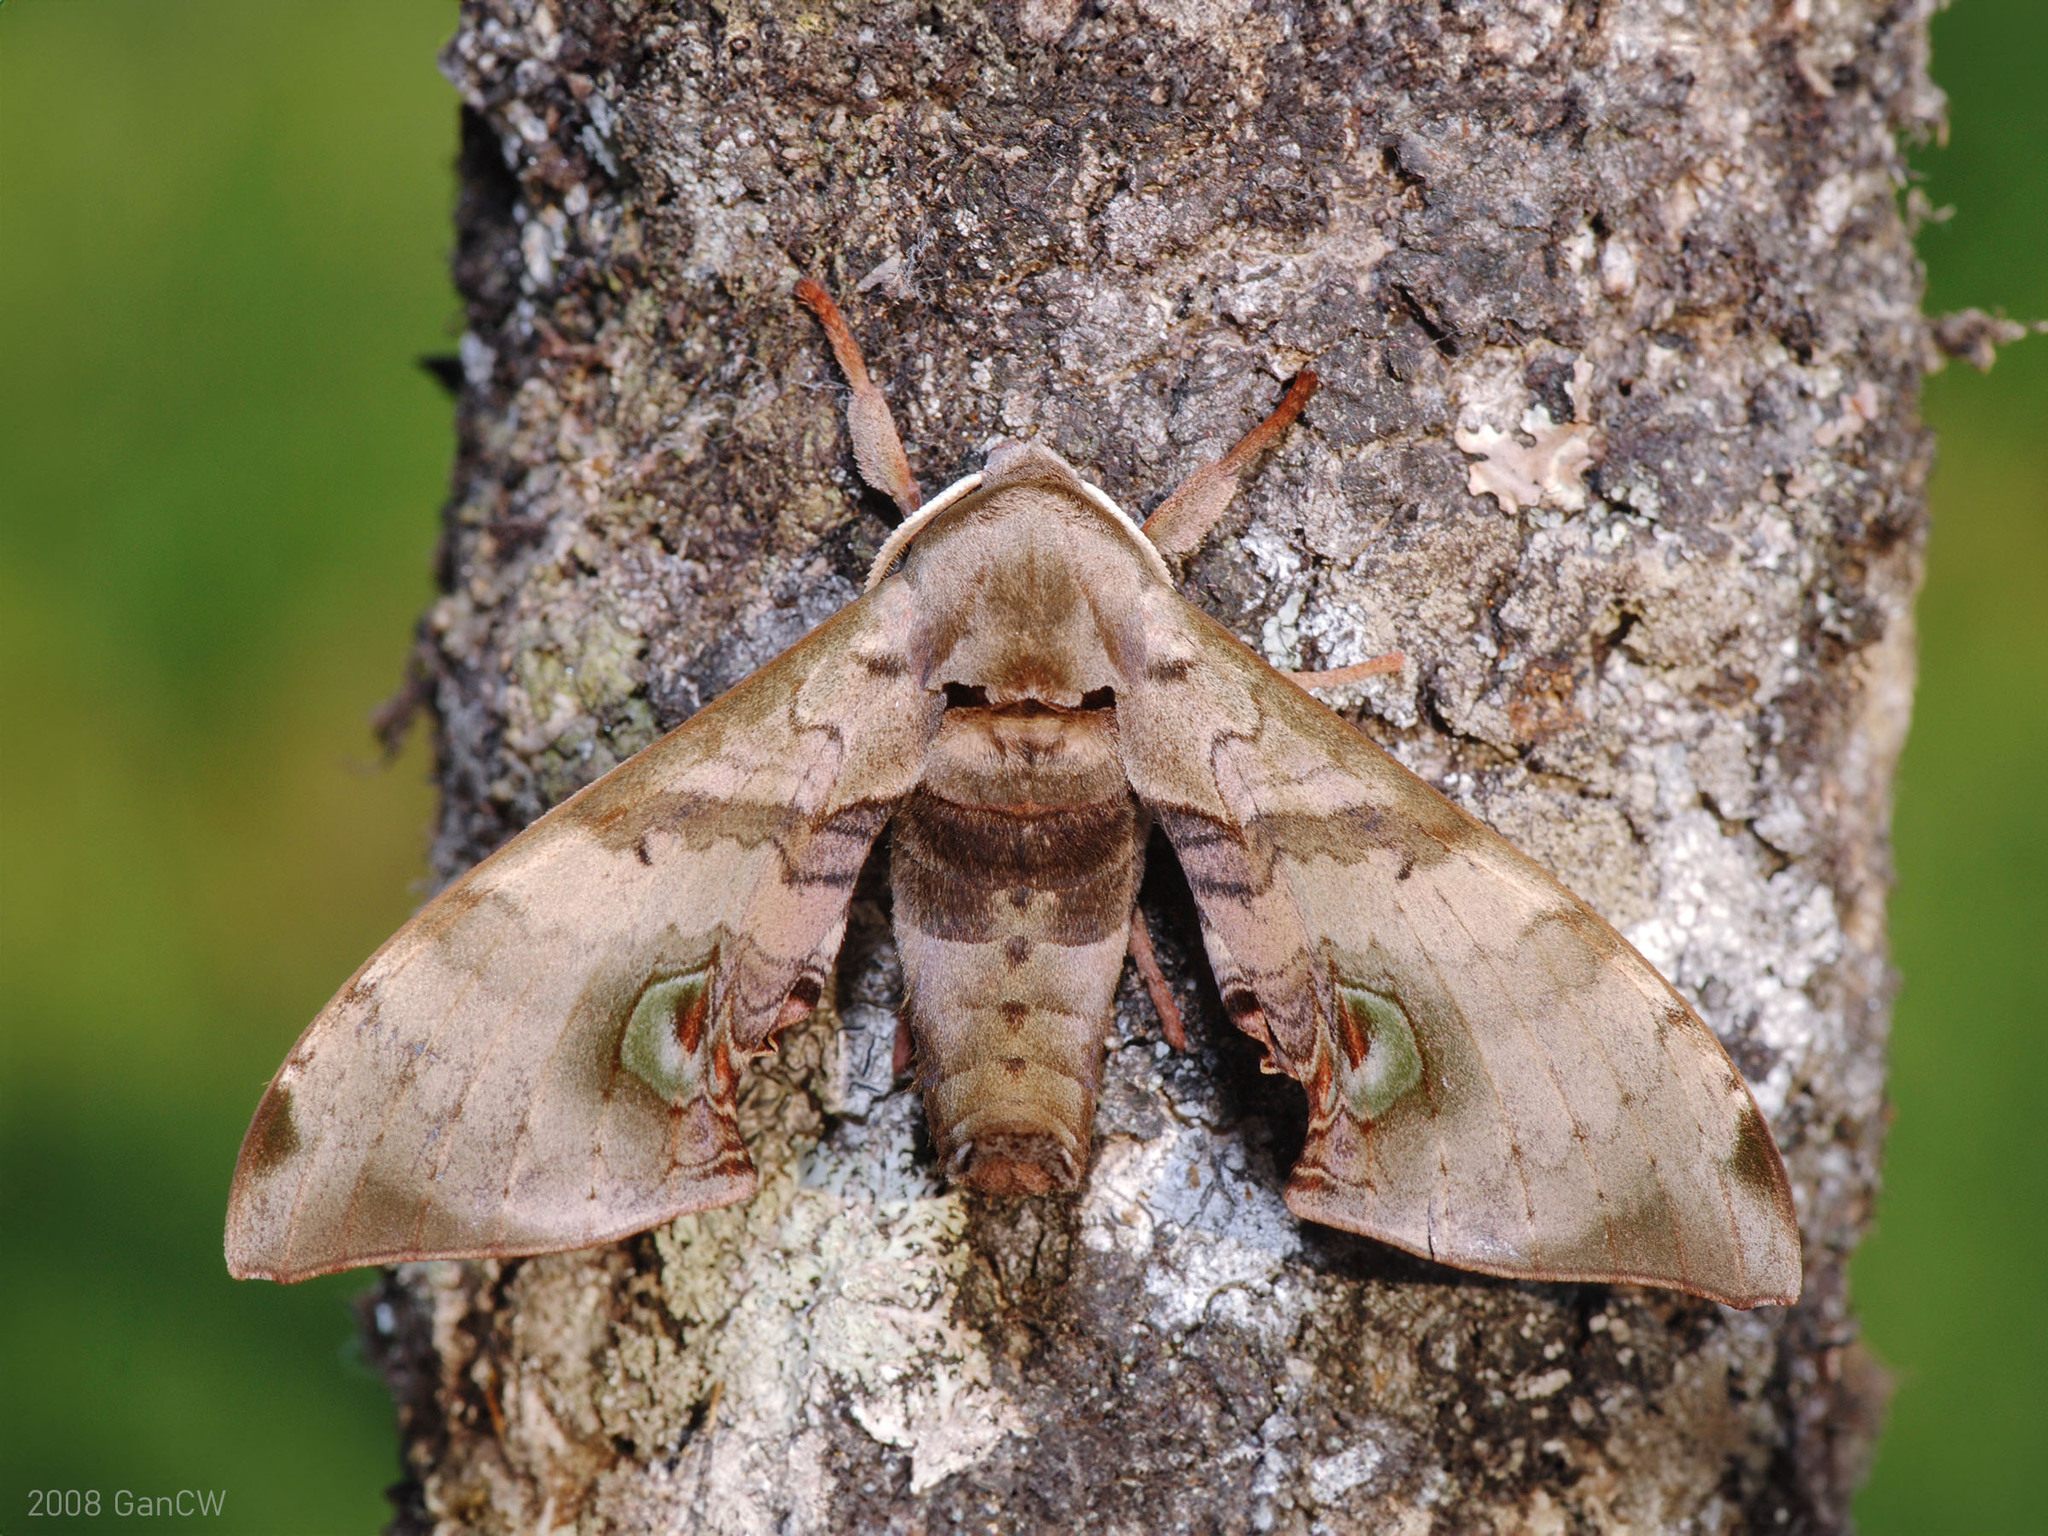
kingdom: Animalia
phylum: Arthropoda
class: Insecta
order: Lepidoptera
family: Sphingidae
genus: Daphnusa
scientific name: Daphnusa ocellaris
